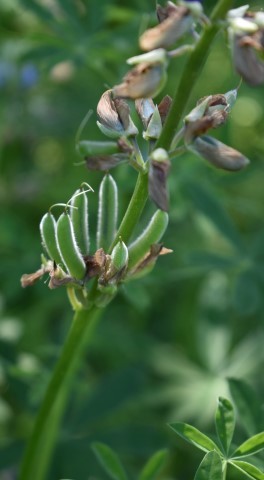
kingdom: Plantae
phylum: Tracheophyta
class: Magnoliopsida
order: Fabales
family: Fabaceae
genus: Lupinus
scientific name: Lupinus rivularis
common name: Riverbank lupine
